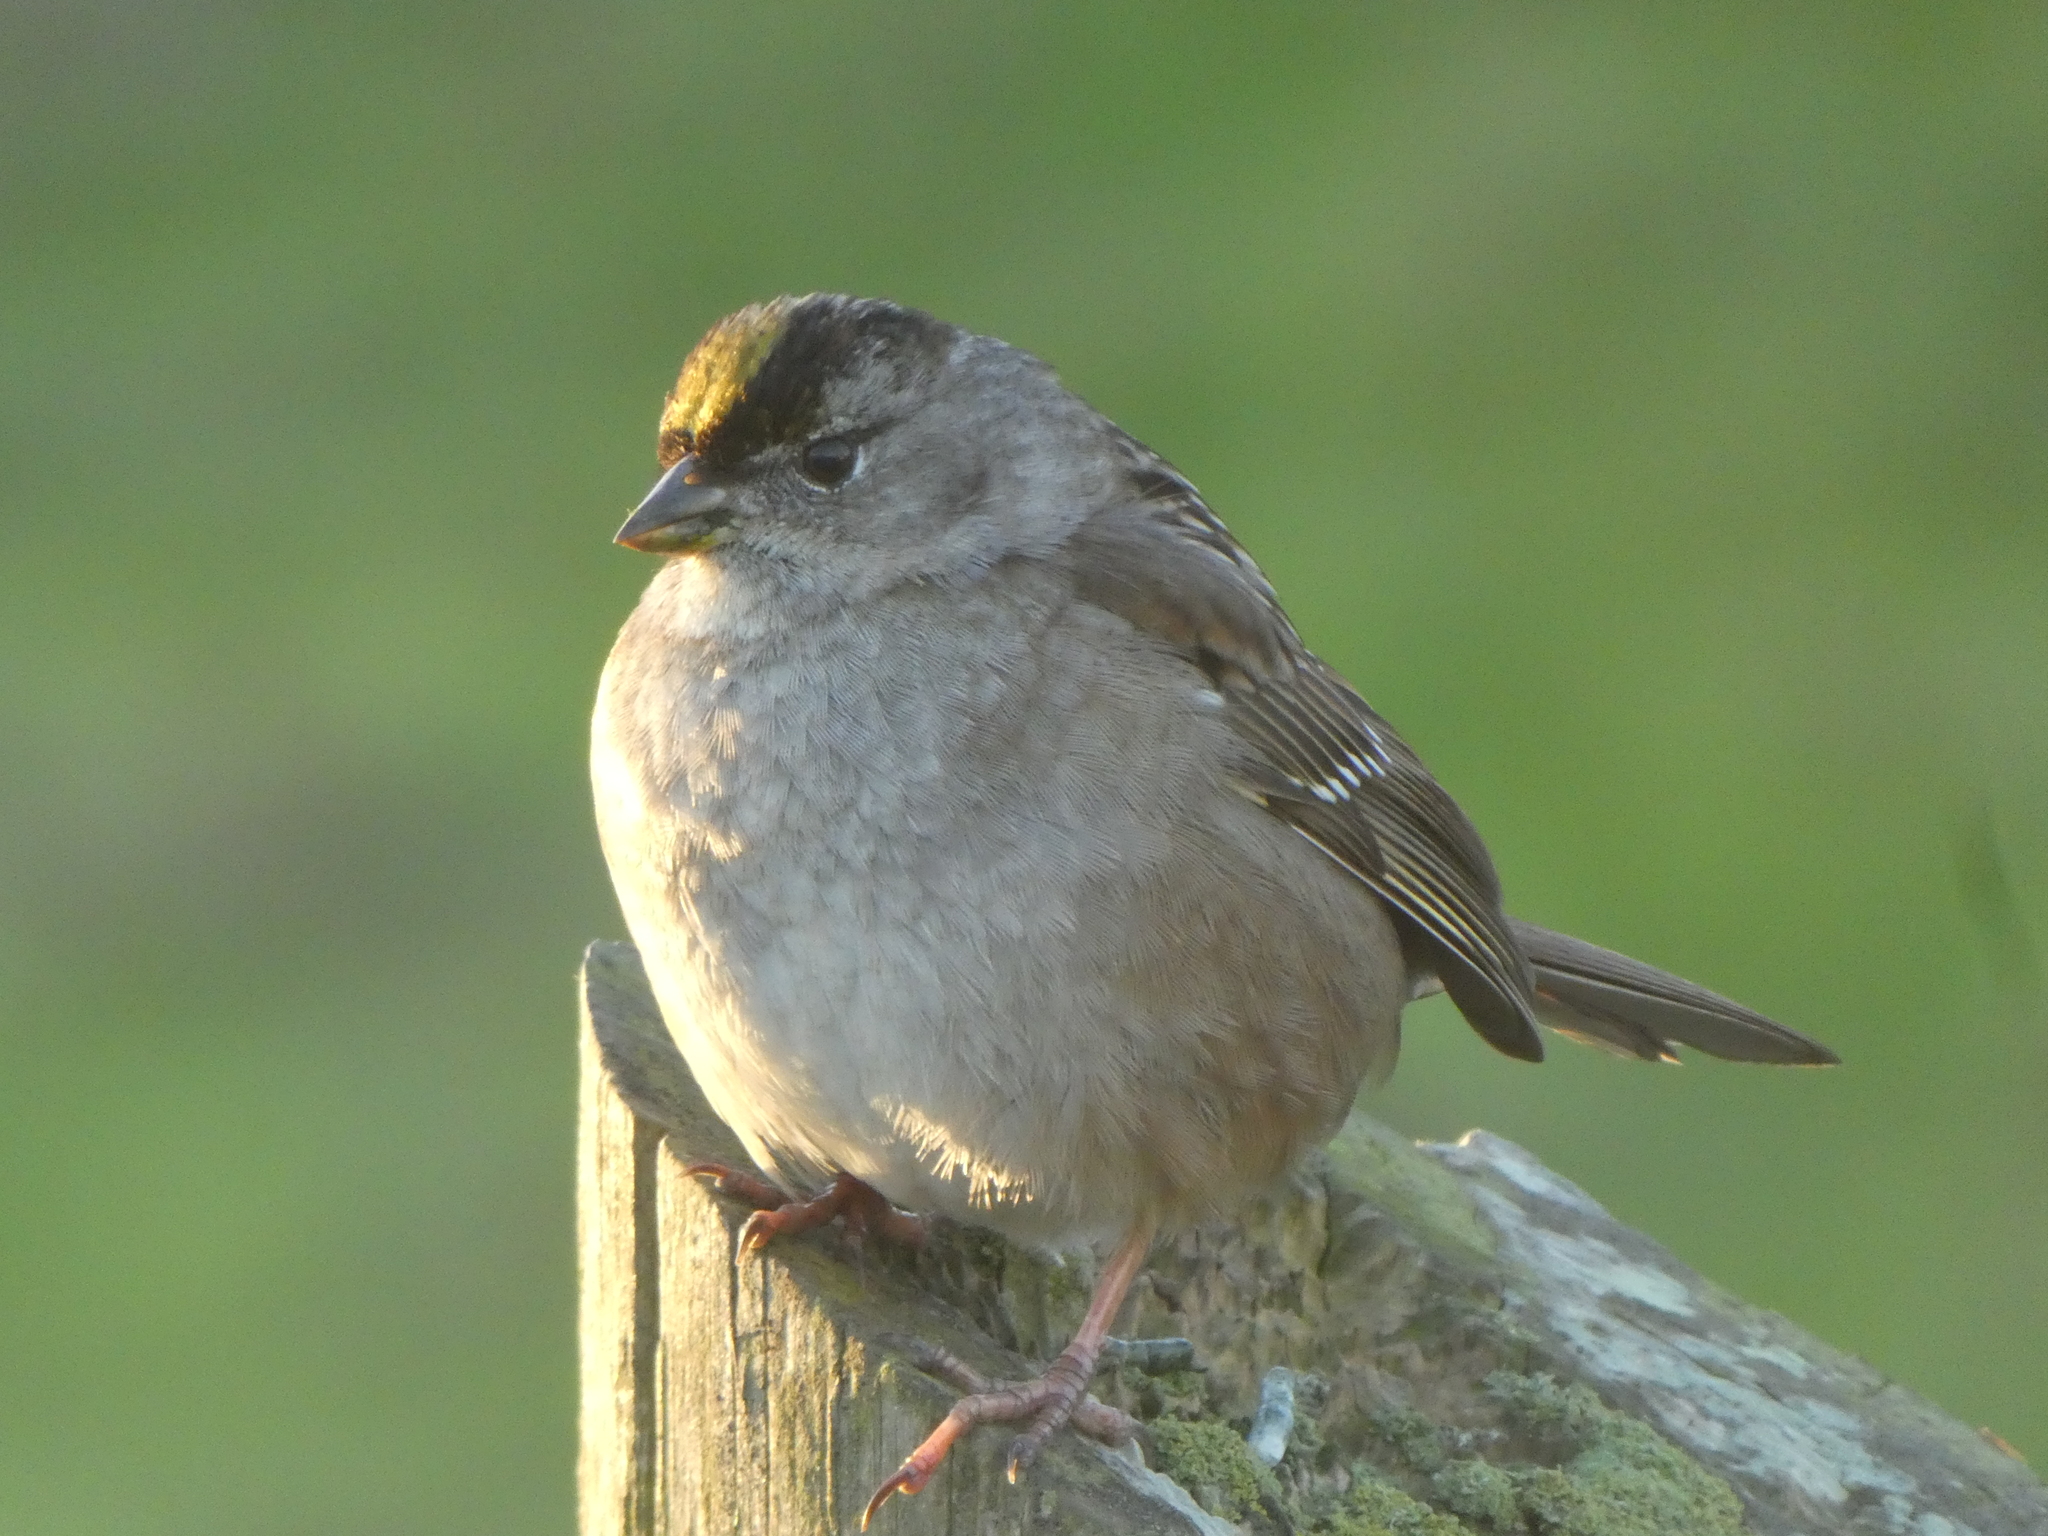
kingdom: Animalia
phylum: Chordata
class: Aves
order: Passeriformes
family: Passerellidae
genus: Zonotrichia
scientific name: Zonotrichia atricapilla
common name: Golden-crowned sparrow
